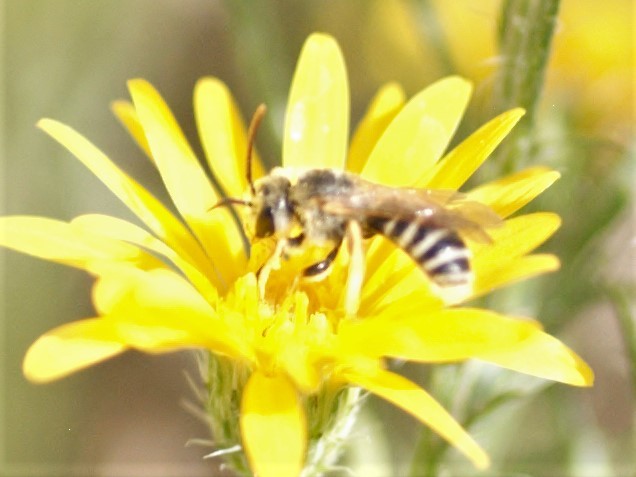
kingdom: Animalia
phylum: Arthropoda
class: Insecta
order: Hymenoptera
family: Halictidae
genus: Halictus
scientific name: Halictus ligatus
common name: Ligated furrow bee
